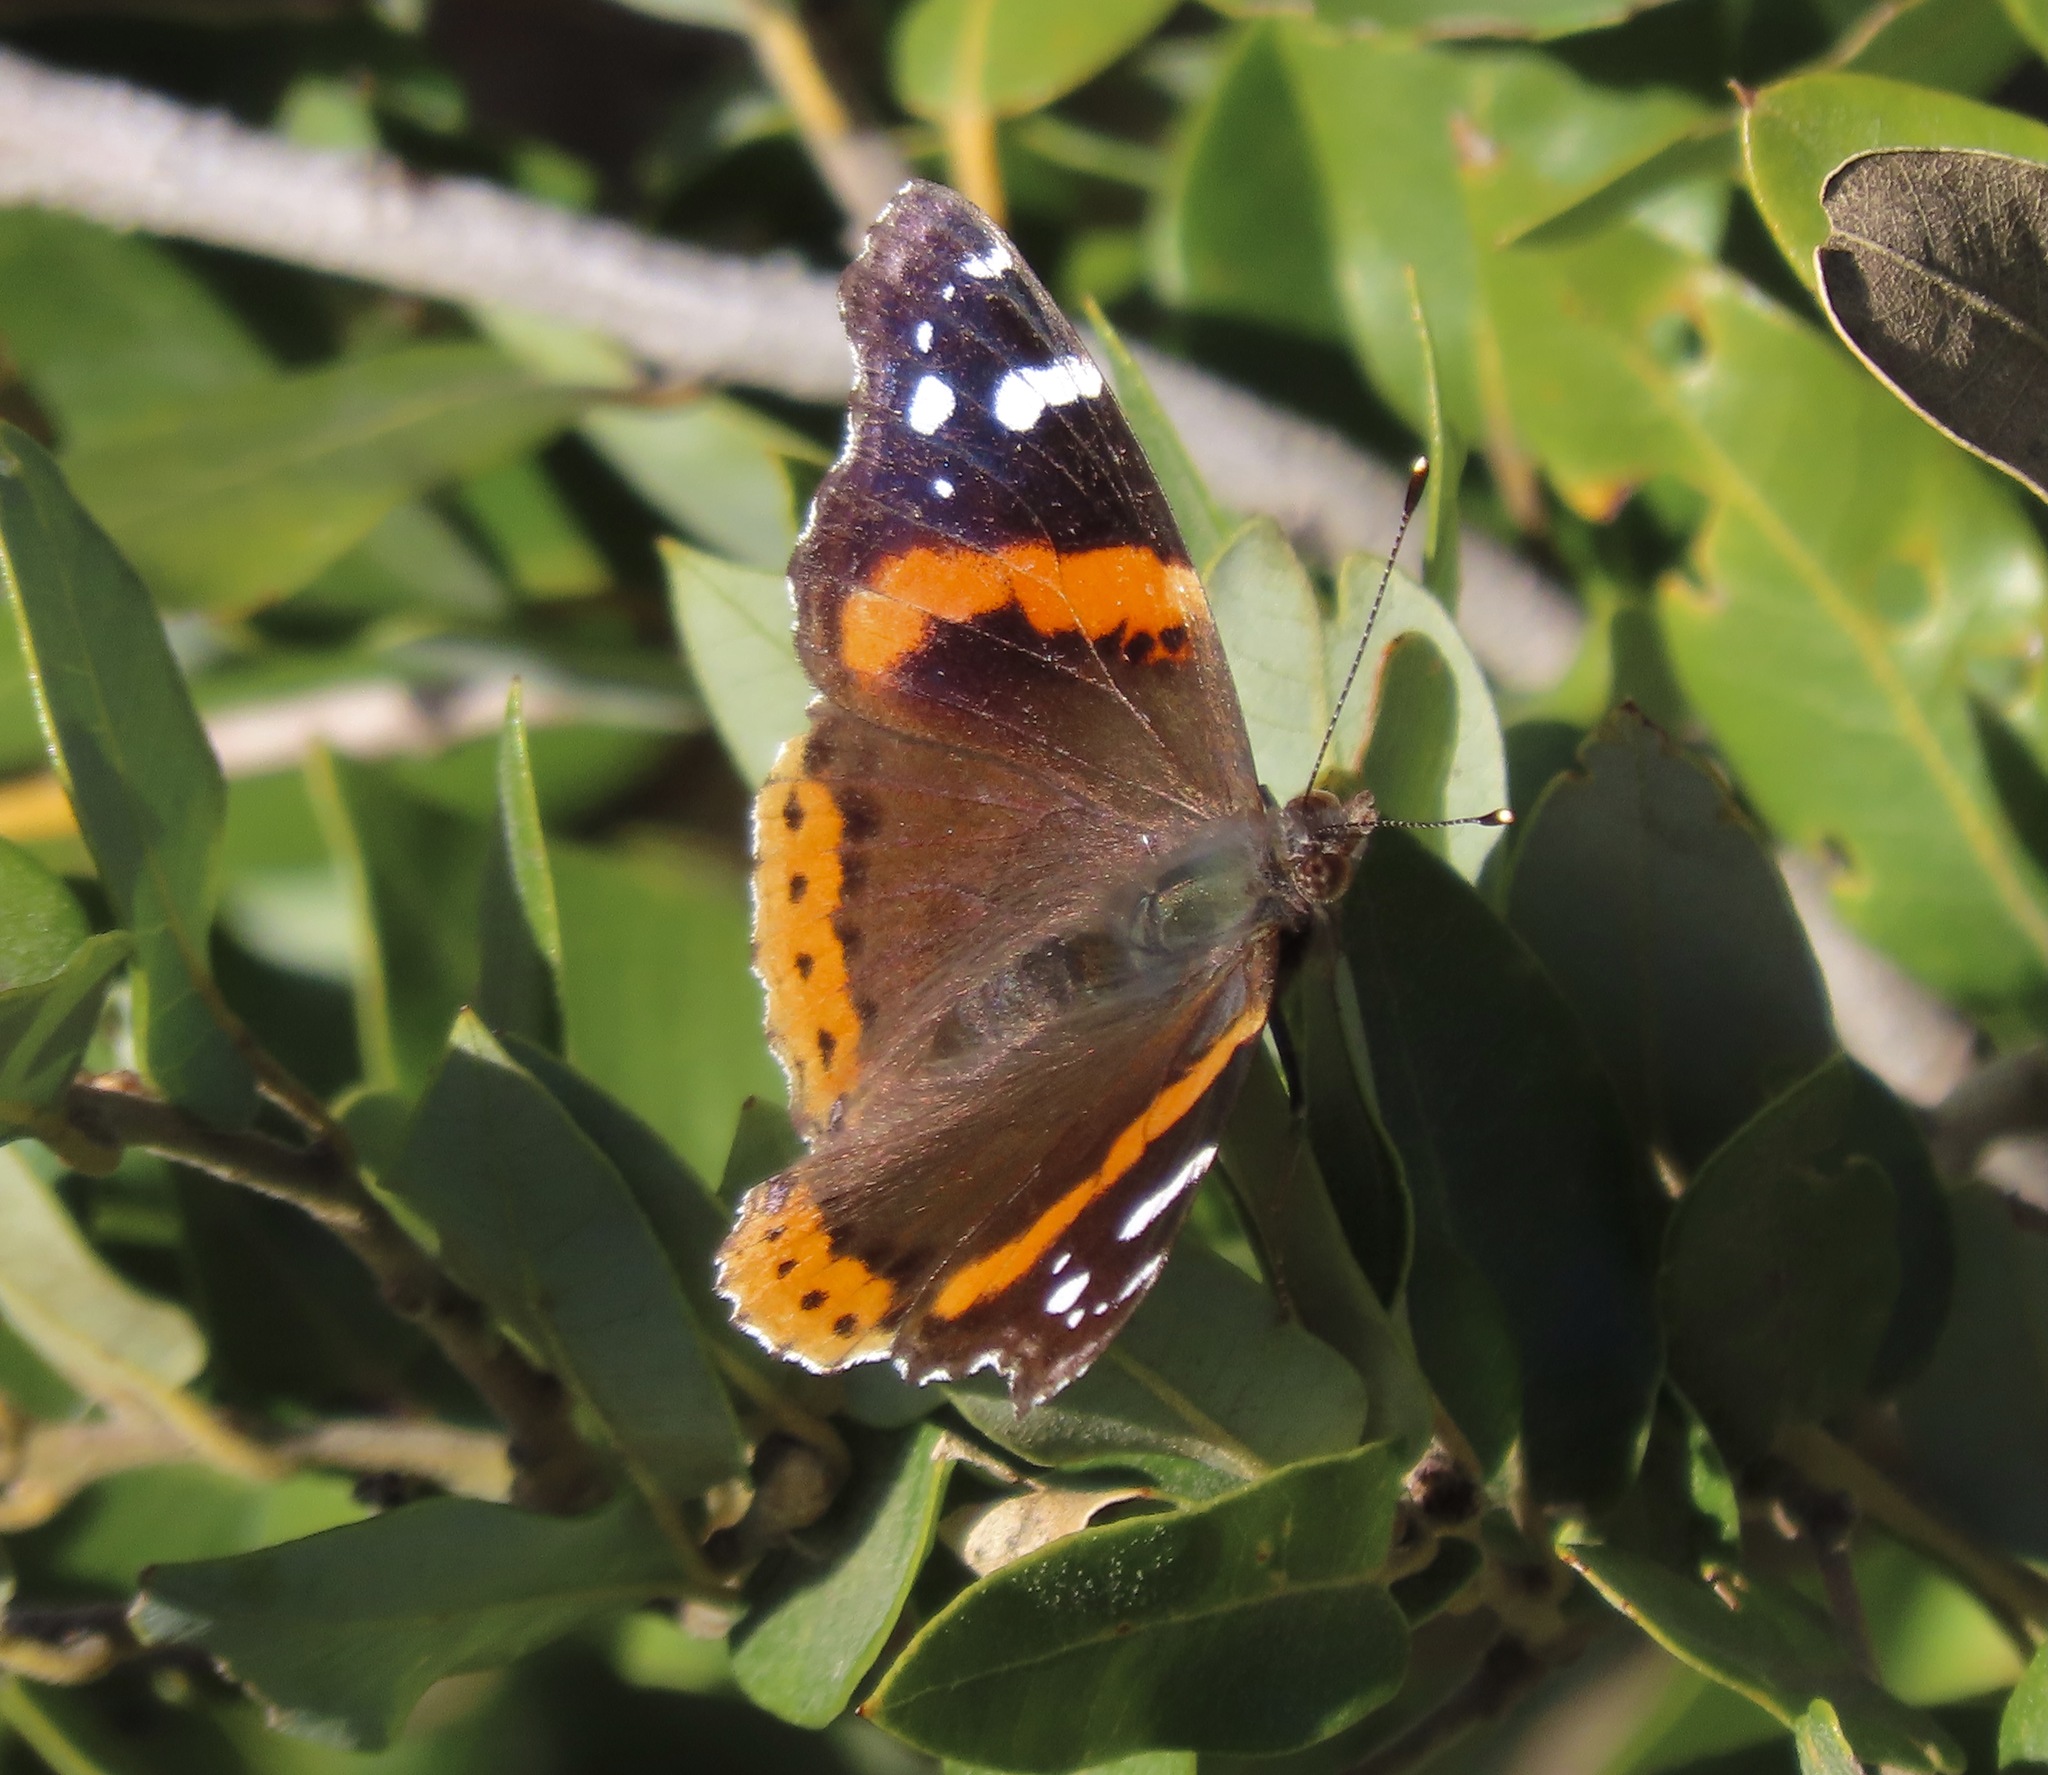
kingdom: Animalia
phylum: Arthropoda
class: Insecta
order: Lepidoptera
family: Nymphalidae
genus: Vanessa
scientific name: Vanessa atalanta
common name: Red admiral
